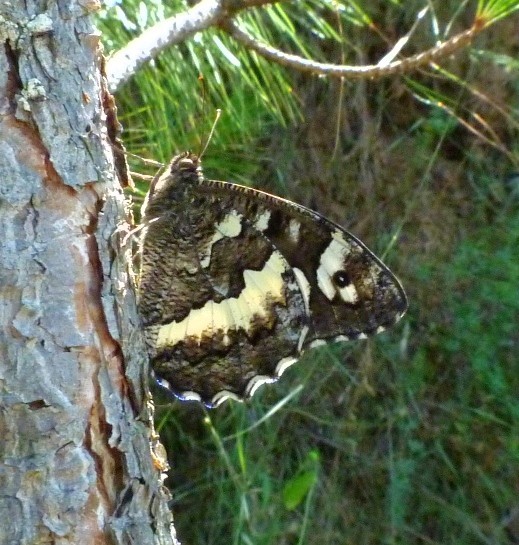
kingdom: Animalia
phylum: Arthropoda
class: Insecta
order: Lepidoptera
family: Lycaenidae
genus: Loweia
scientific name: Loweia tityrus
